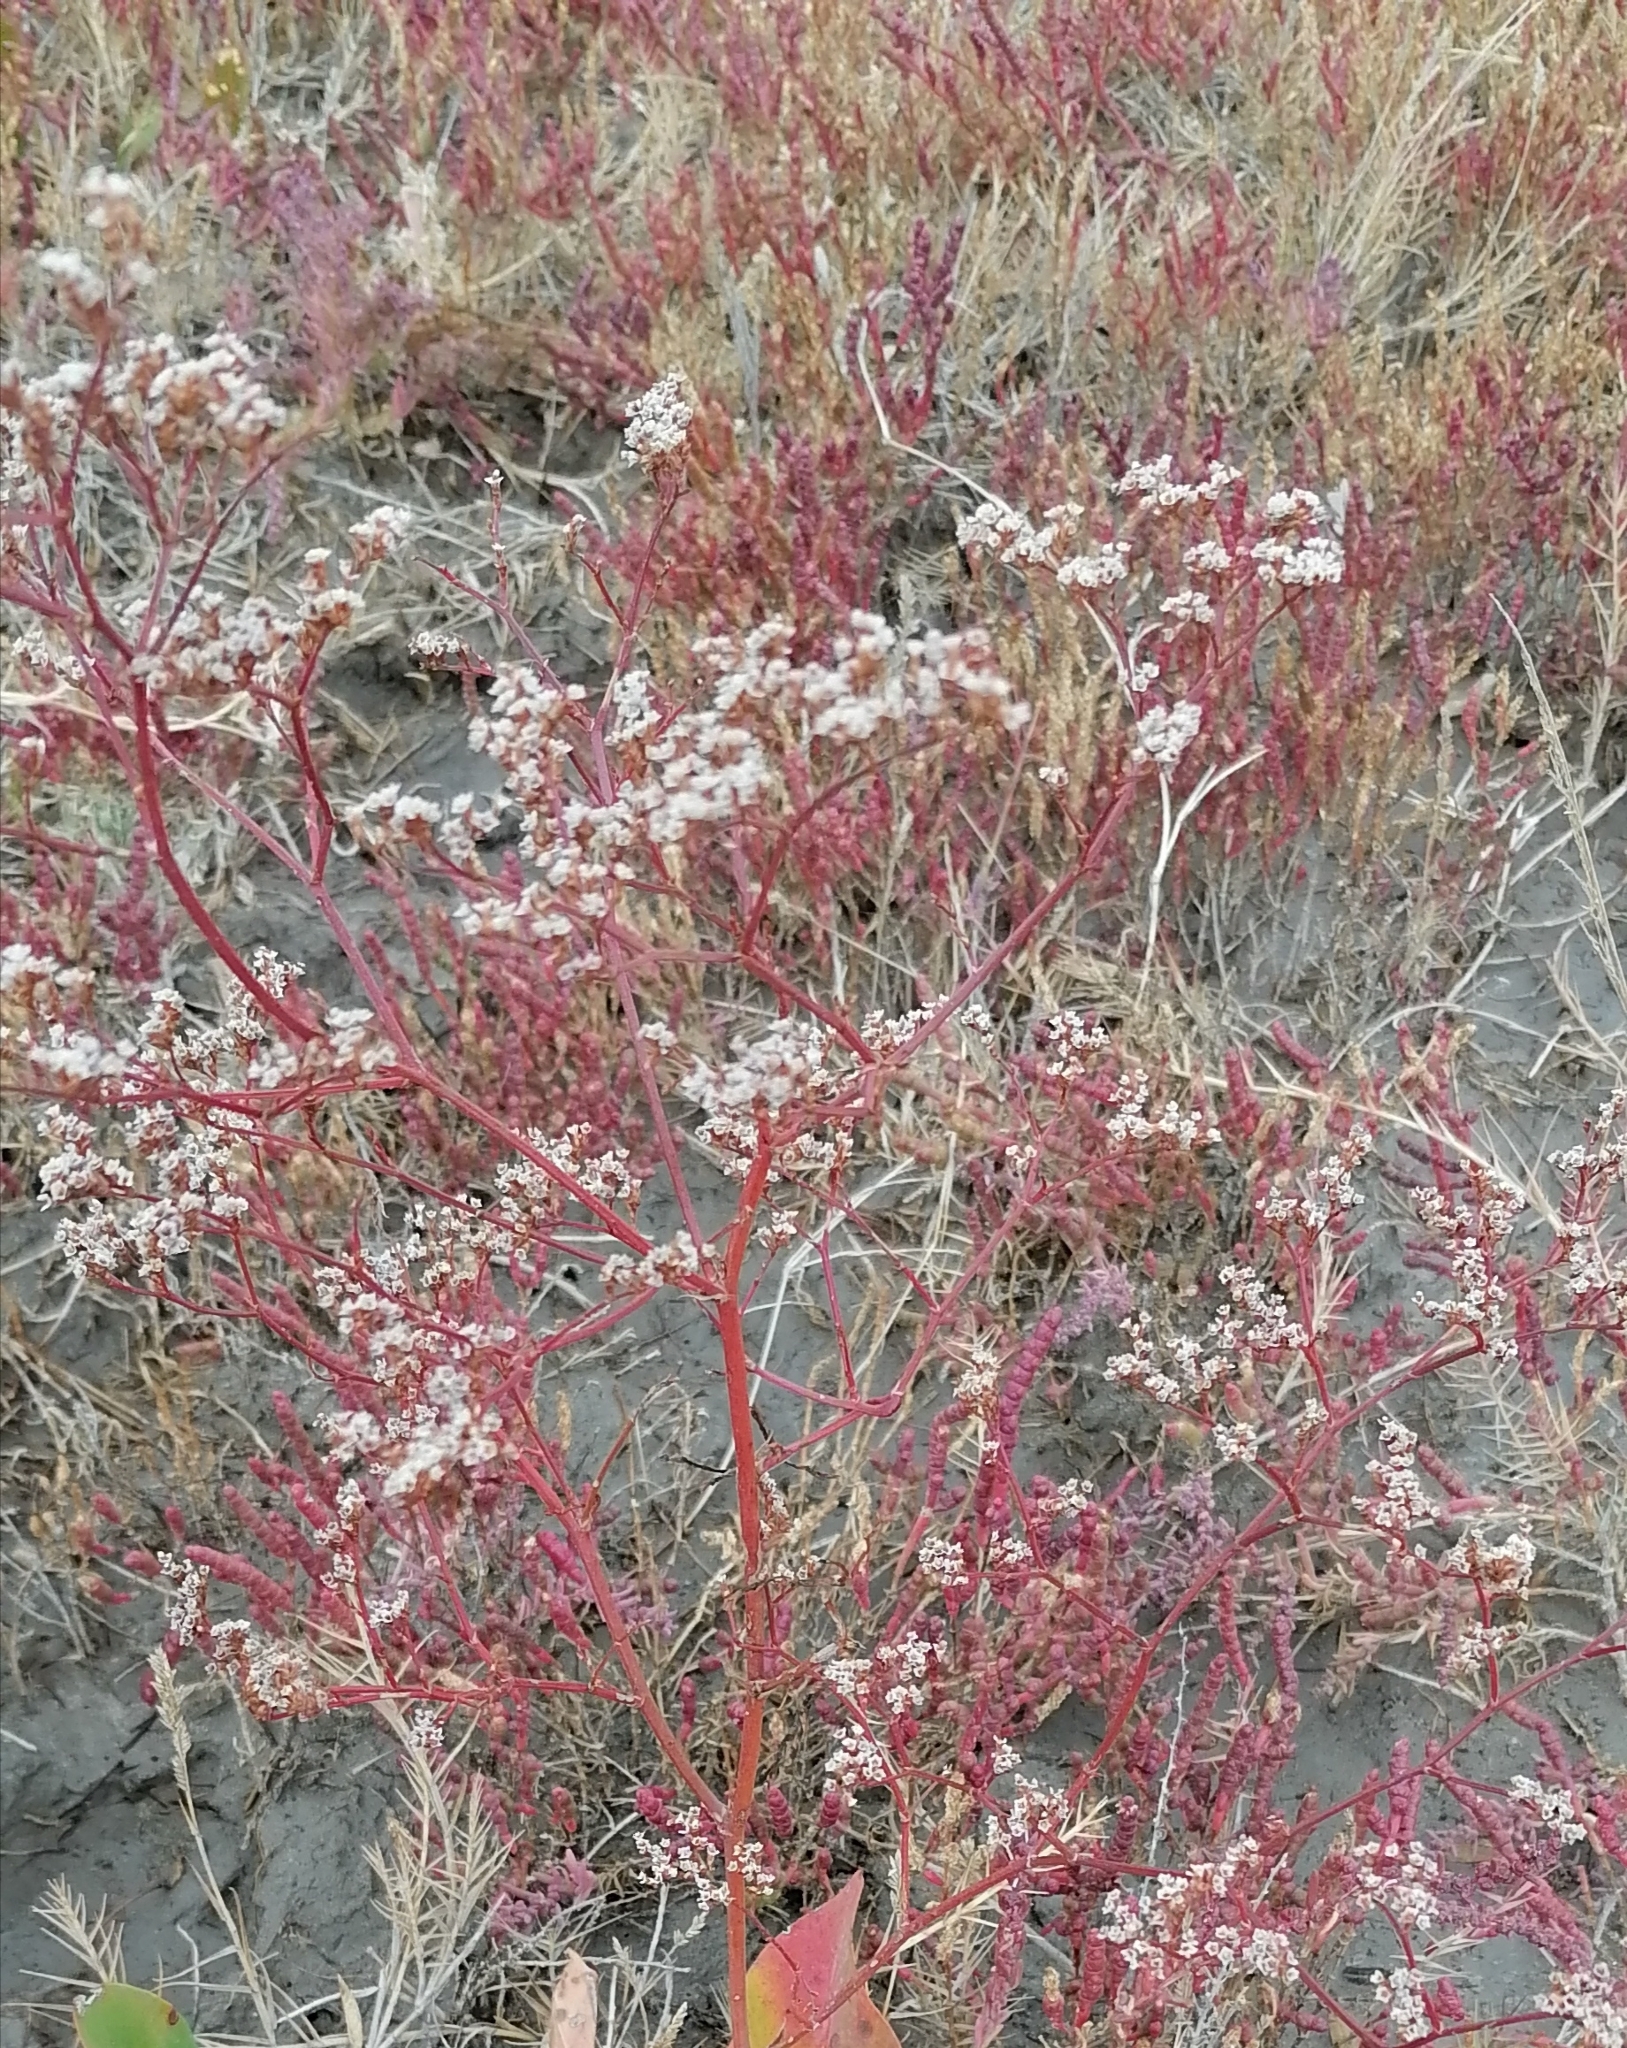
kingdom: Plantae
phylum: Tracheophyta
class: Magnoliopsida
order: Caryophyllales
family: Plumbaginaceae
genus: Limonium
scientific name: Limonium bellidifolium
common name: Matted sea-lavender
